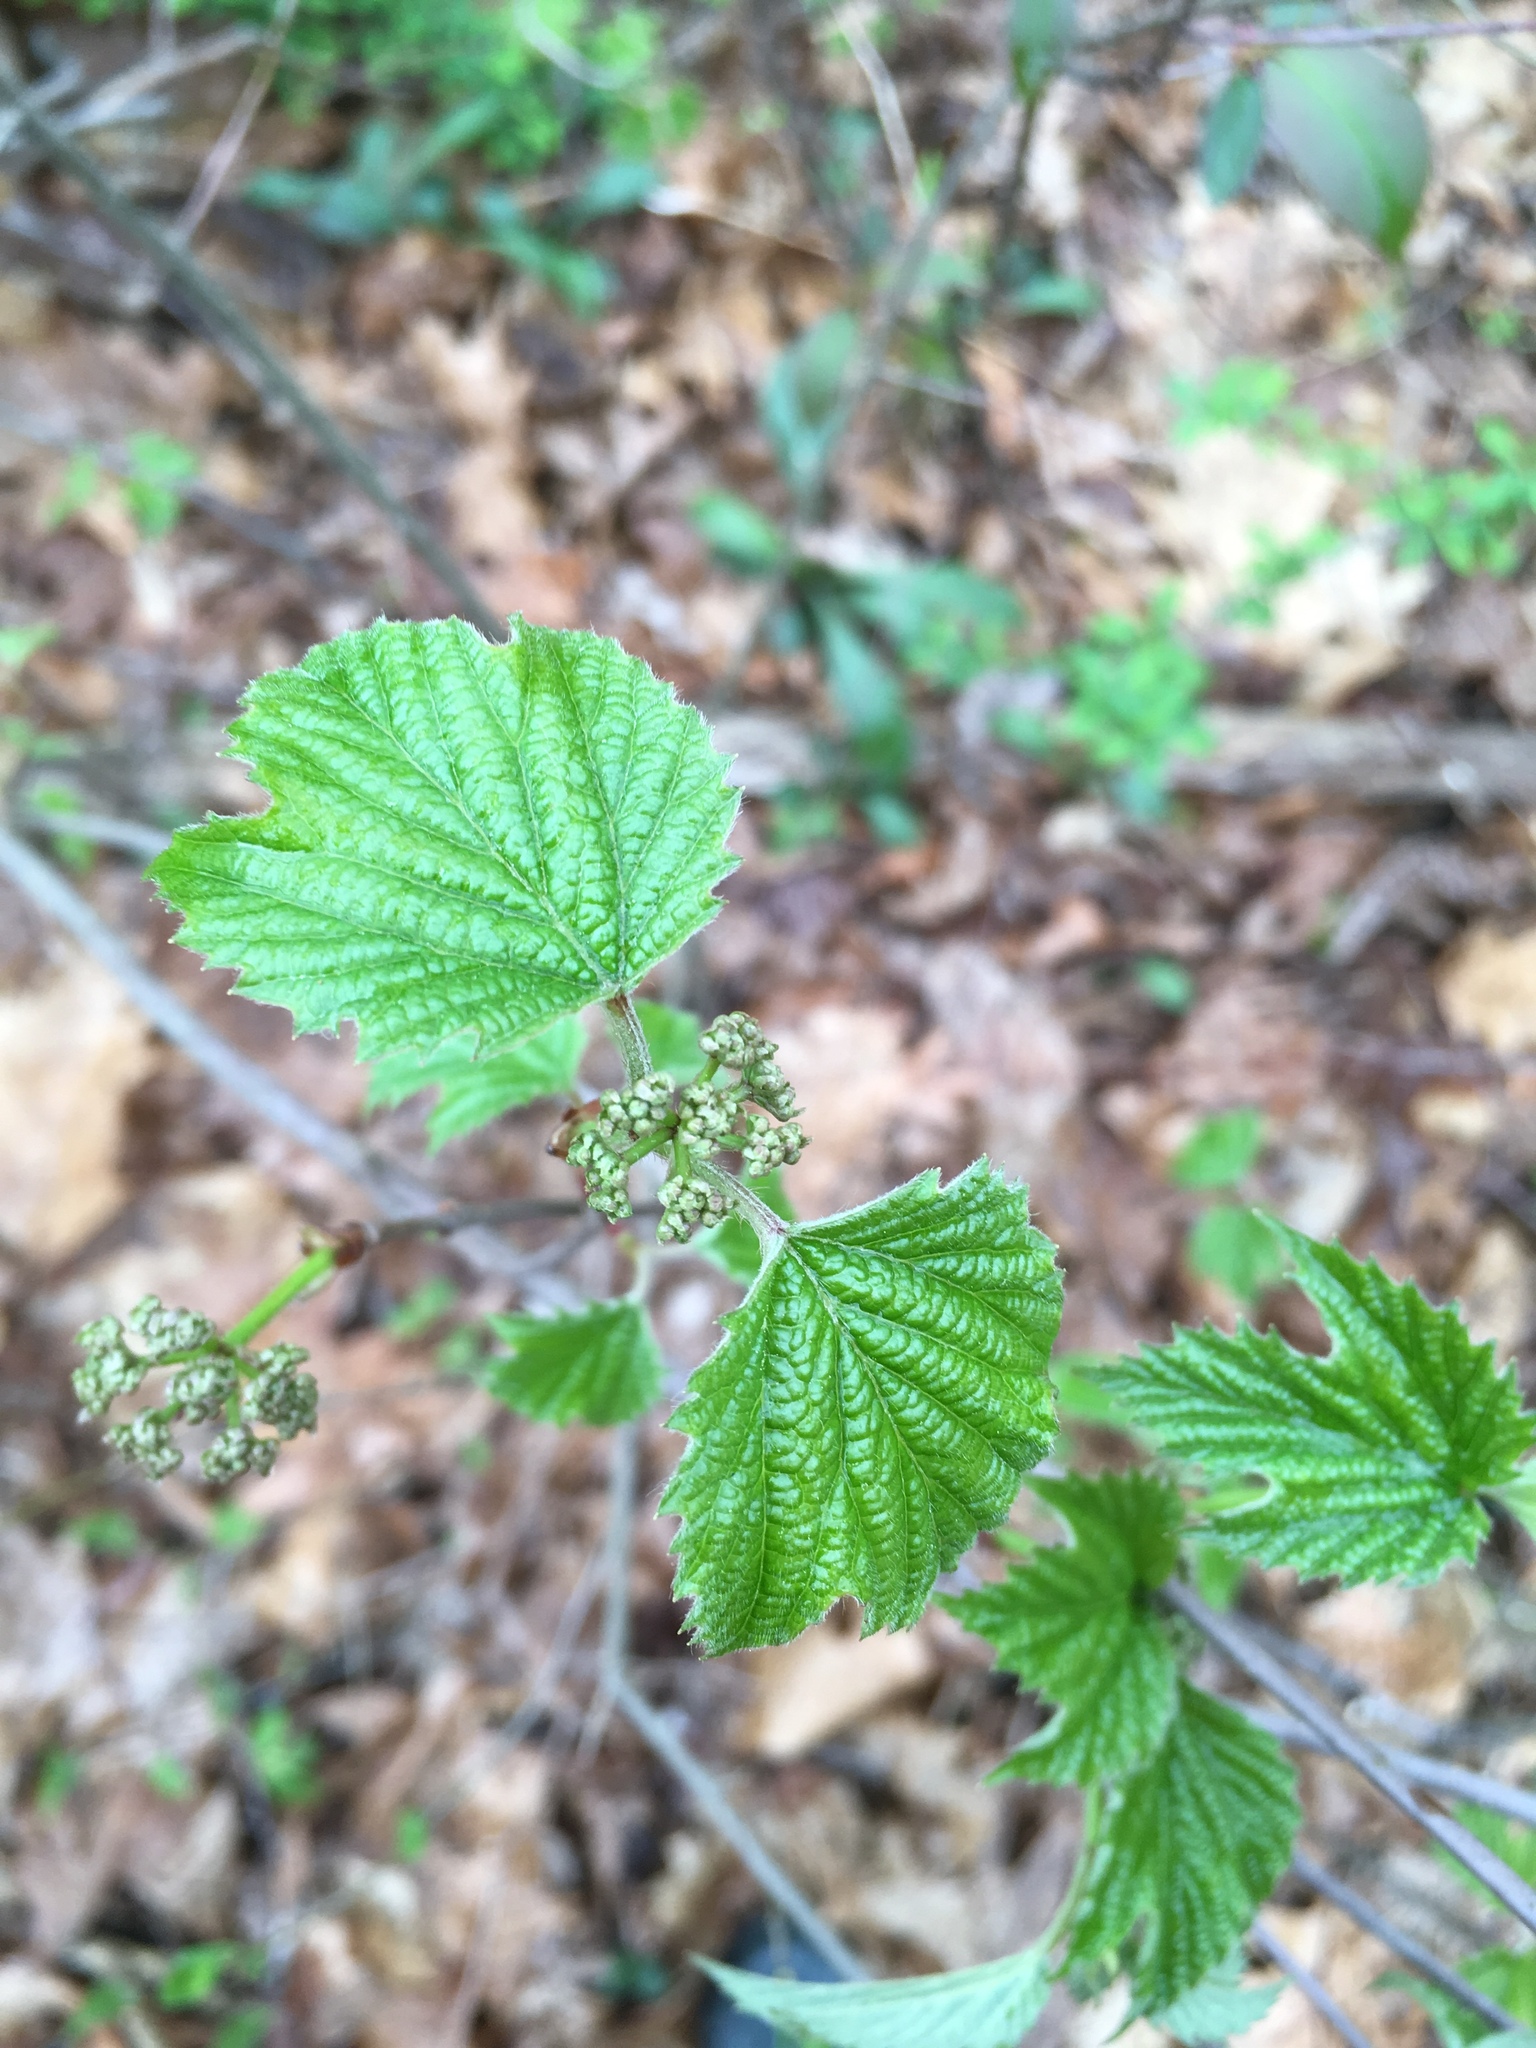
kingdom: Plantae
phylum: Tracheophyta
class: Magnoliopsida
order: Dipsacales
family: Viburnaceae
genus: Viburnum
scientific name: Viburnum acerifolium
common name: Dockmackie
